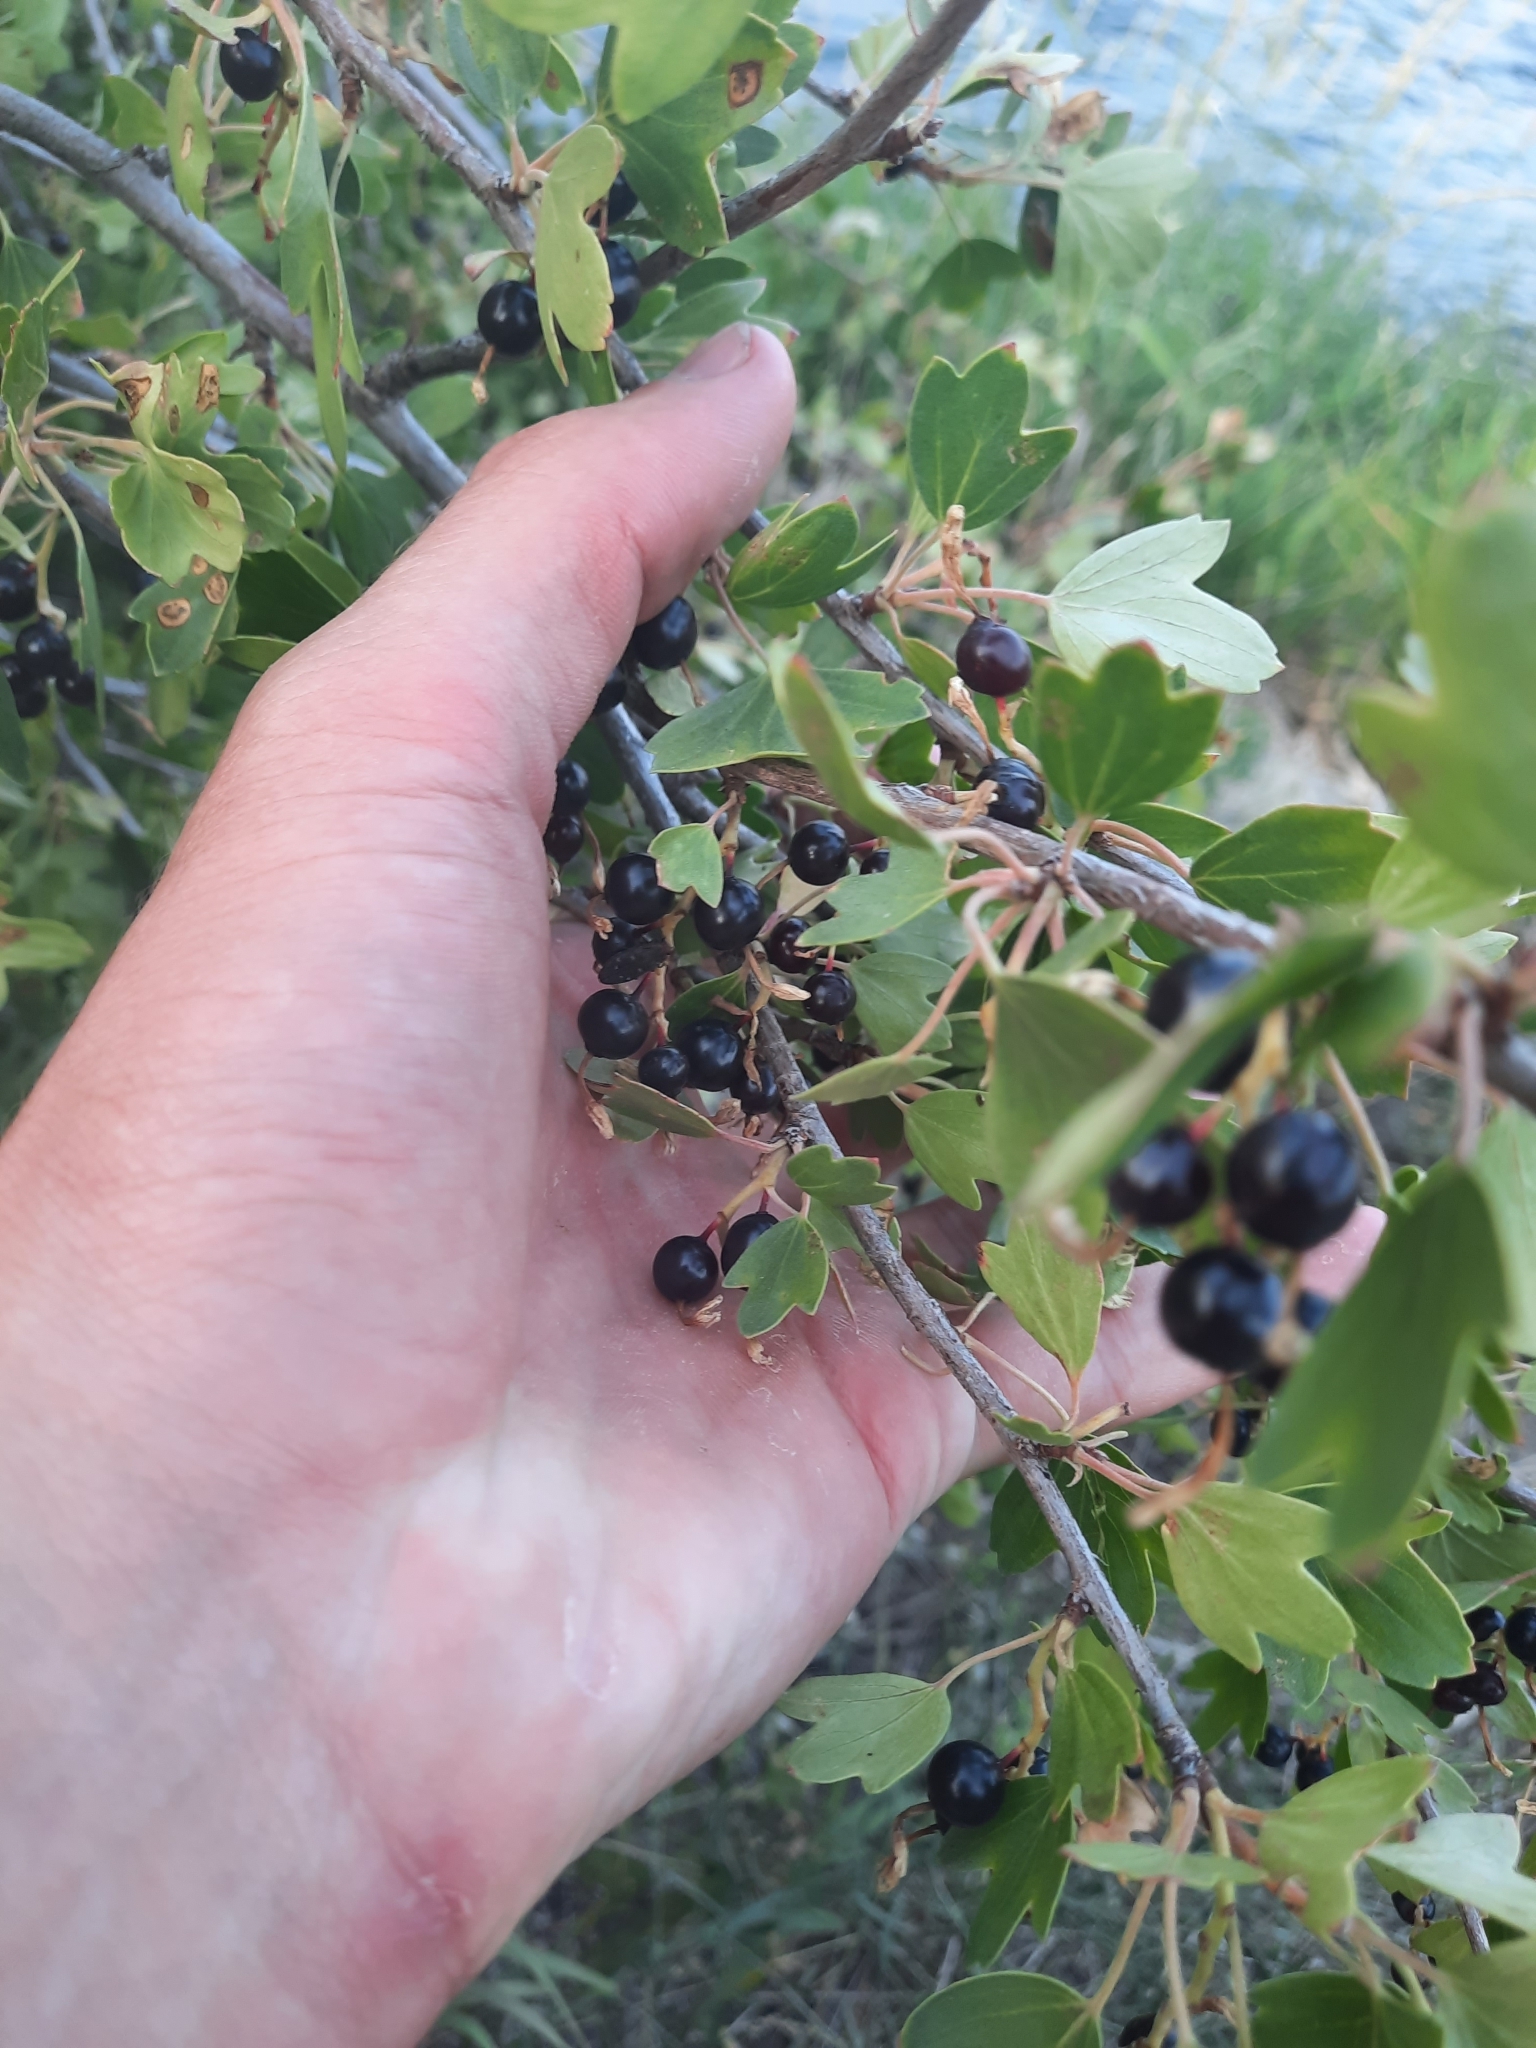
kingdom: Plantae
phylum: Tracheophyta
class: Magnoliopsida
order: Saxifragales
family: Grossulariaceae
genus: Ribes
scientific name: Ribes aureum
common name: Golden currant
